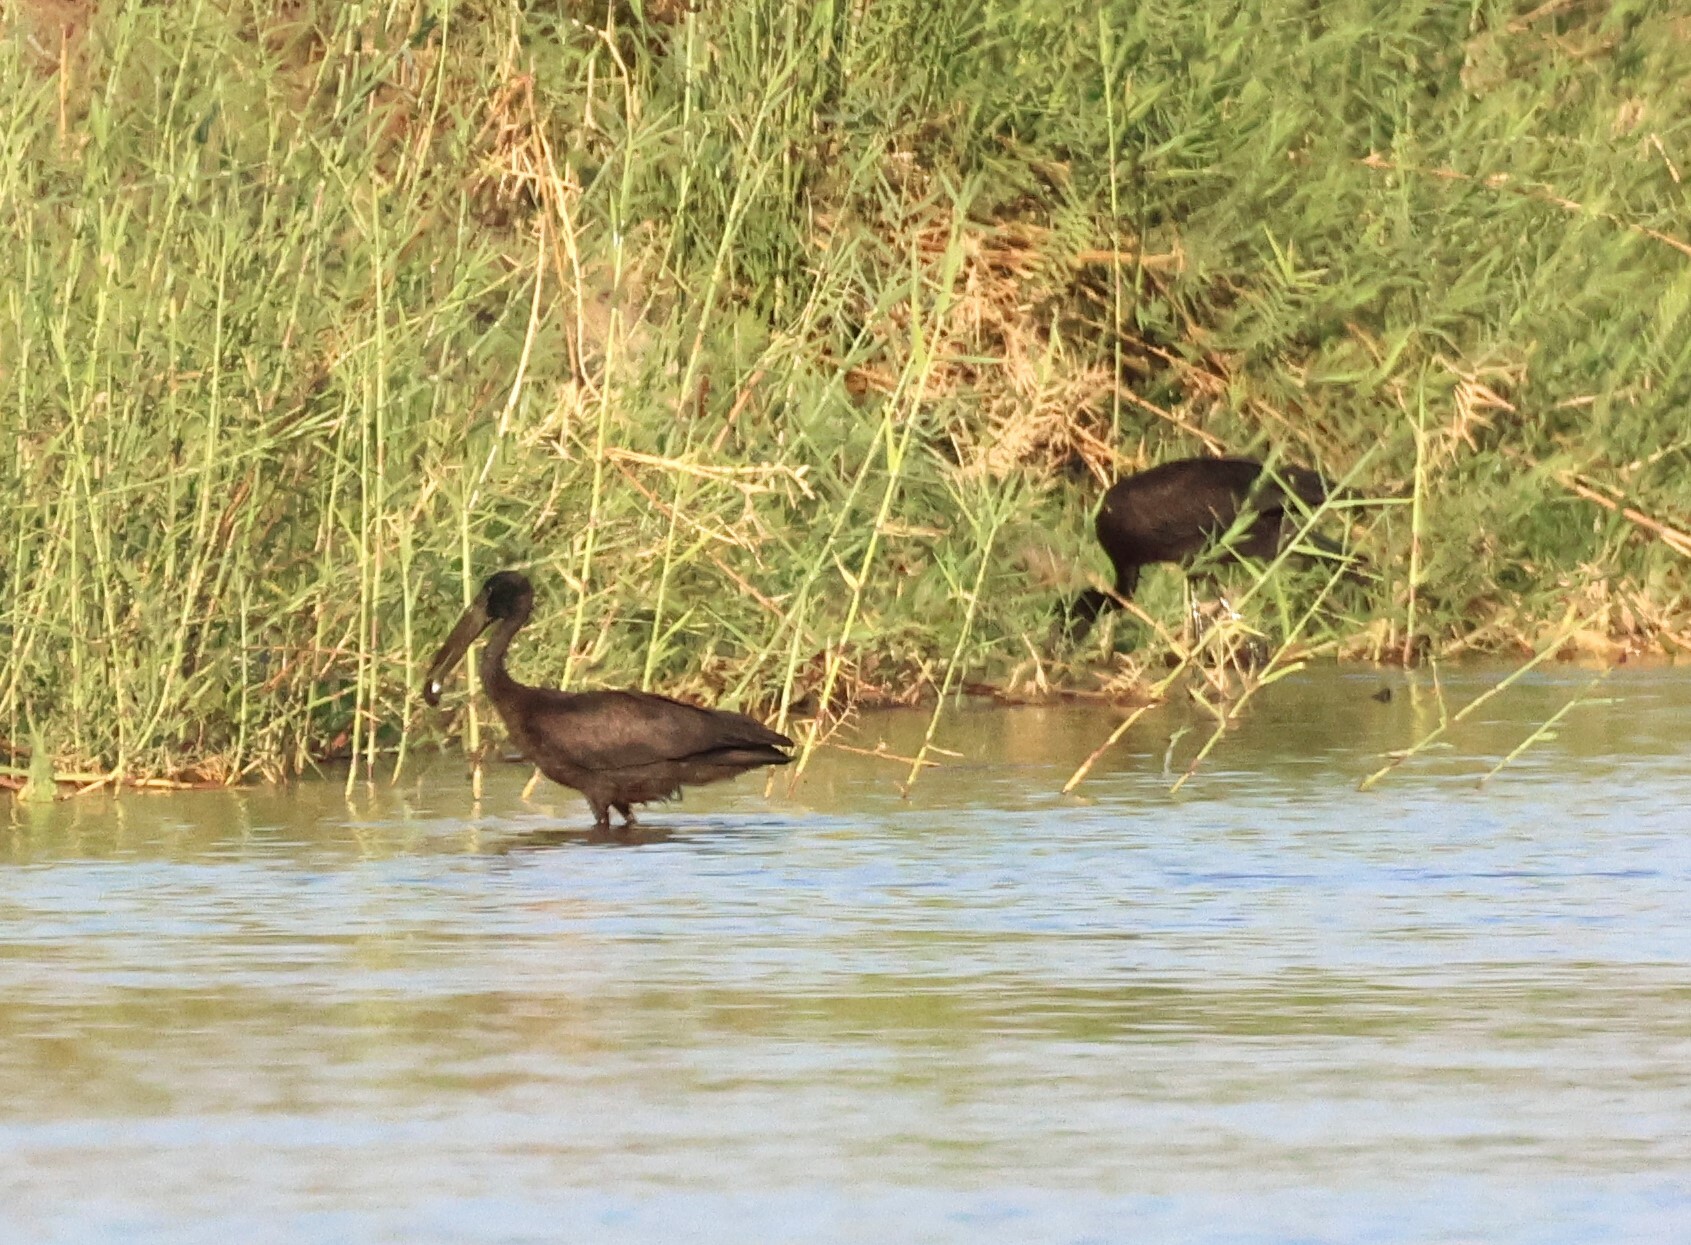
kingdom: Animalia
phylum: Chordata
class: Aves
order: Ciconiiformes
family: Ciconiidae
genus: Anastomus
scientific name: Anastomus lamelligerus
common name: African openbill
